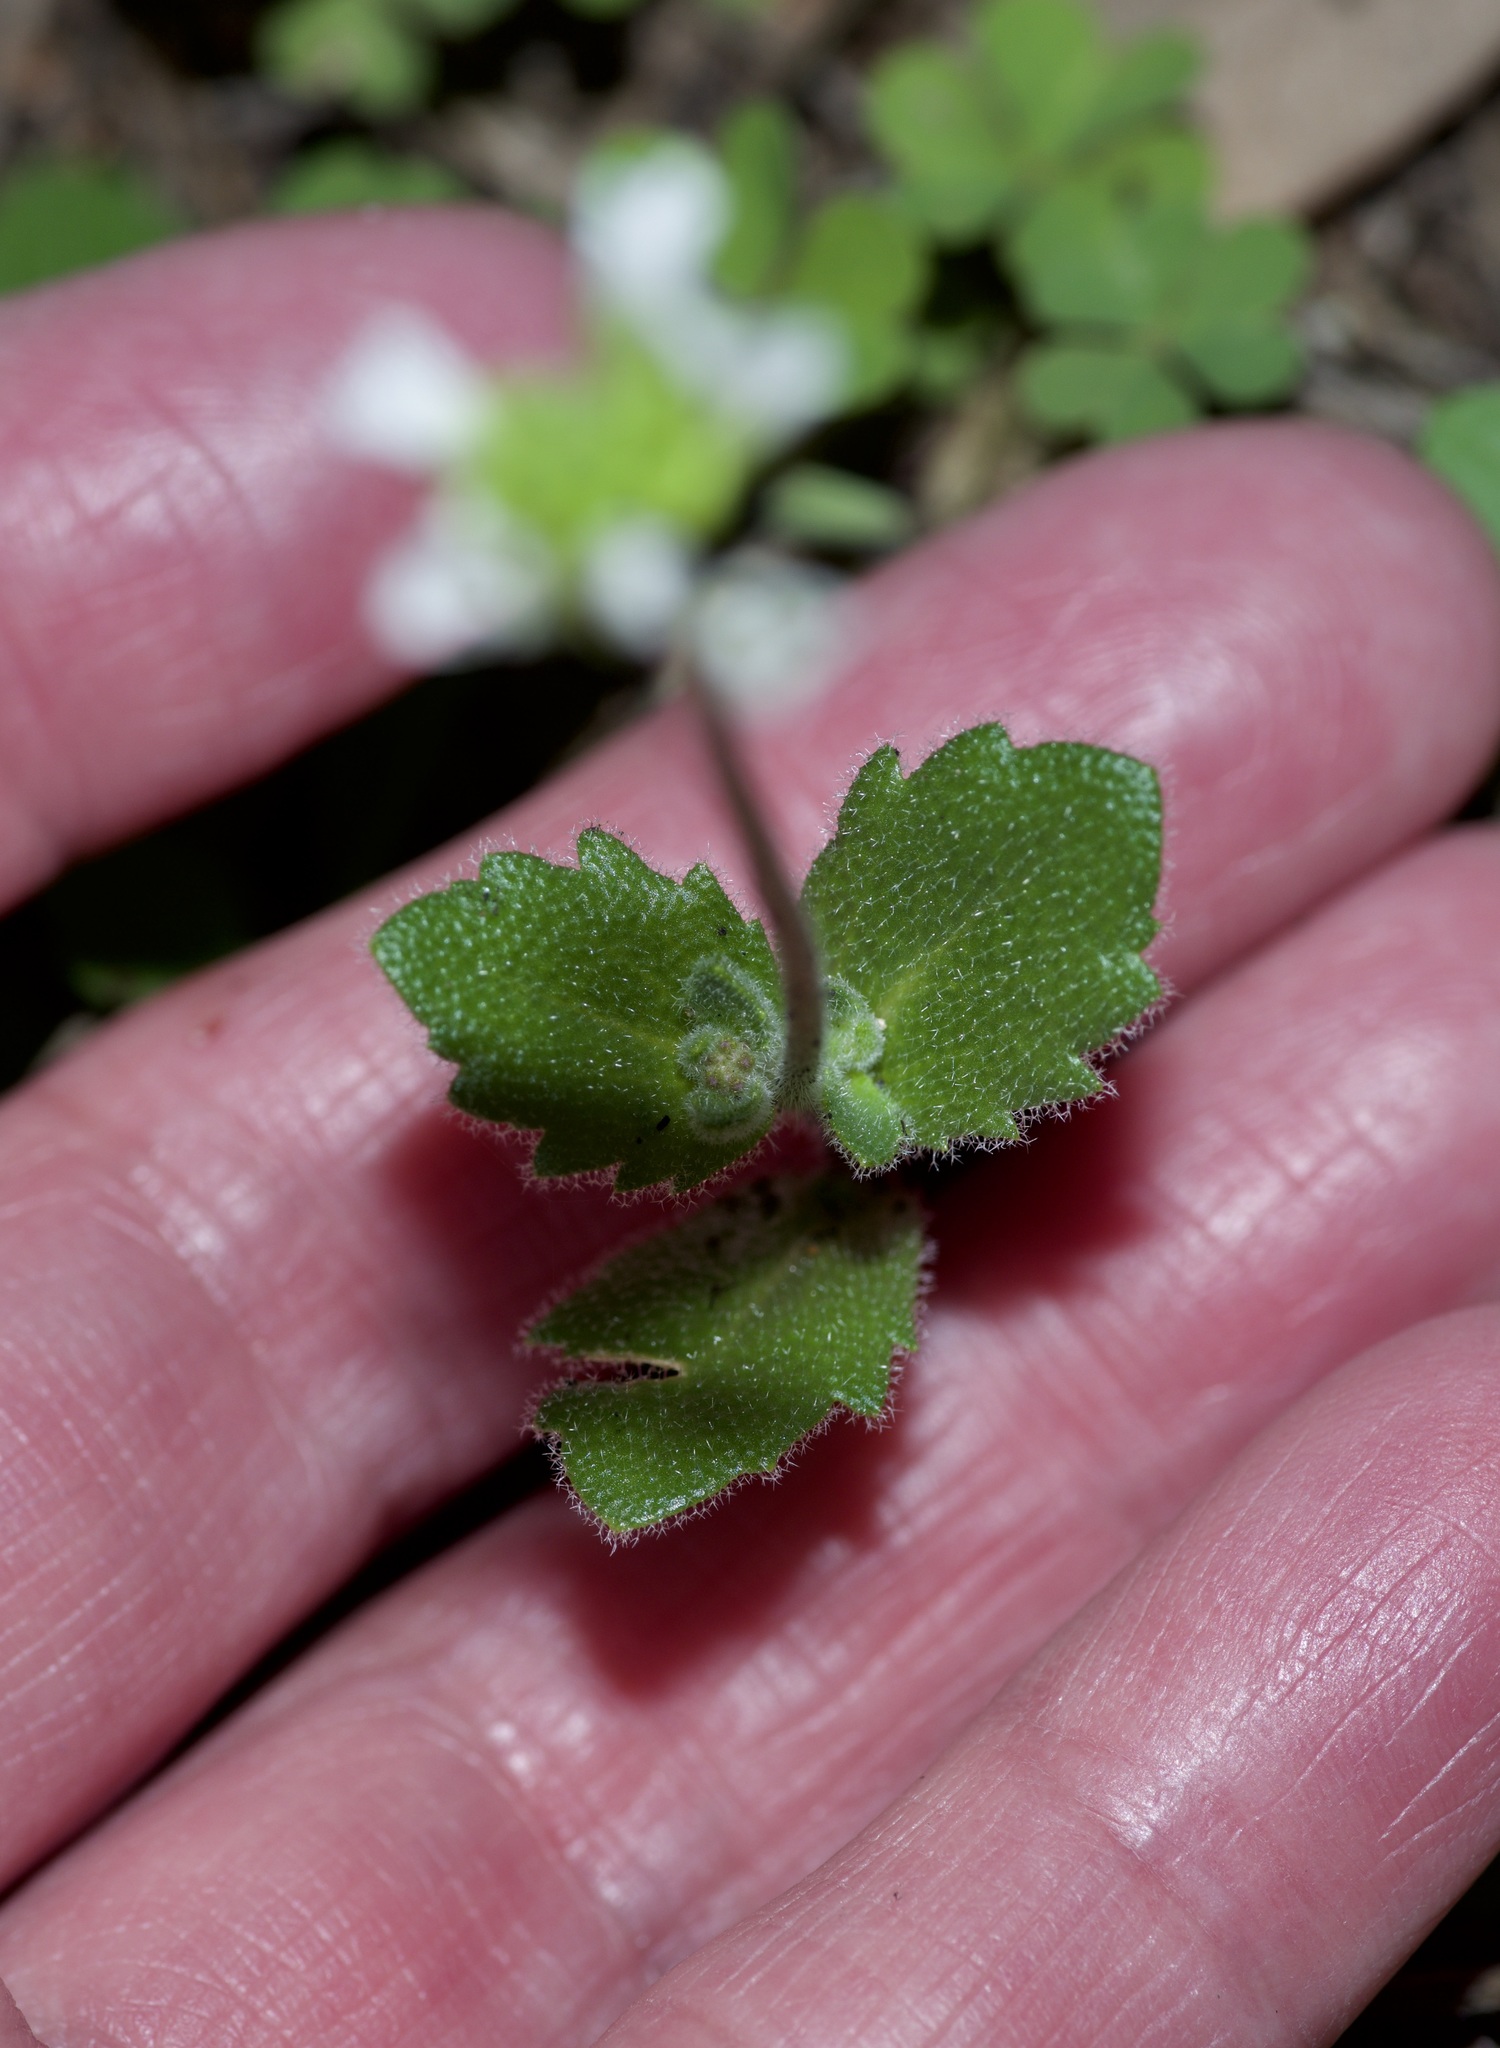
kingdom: Plantae
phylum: Tracheophyta
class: Magnoliopsida
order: Brassicales
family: Brassicaceae
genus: Tomostima
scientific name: Tomostima cuneifolia
